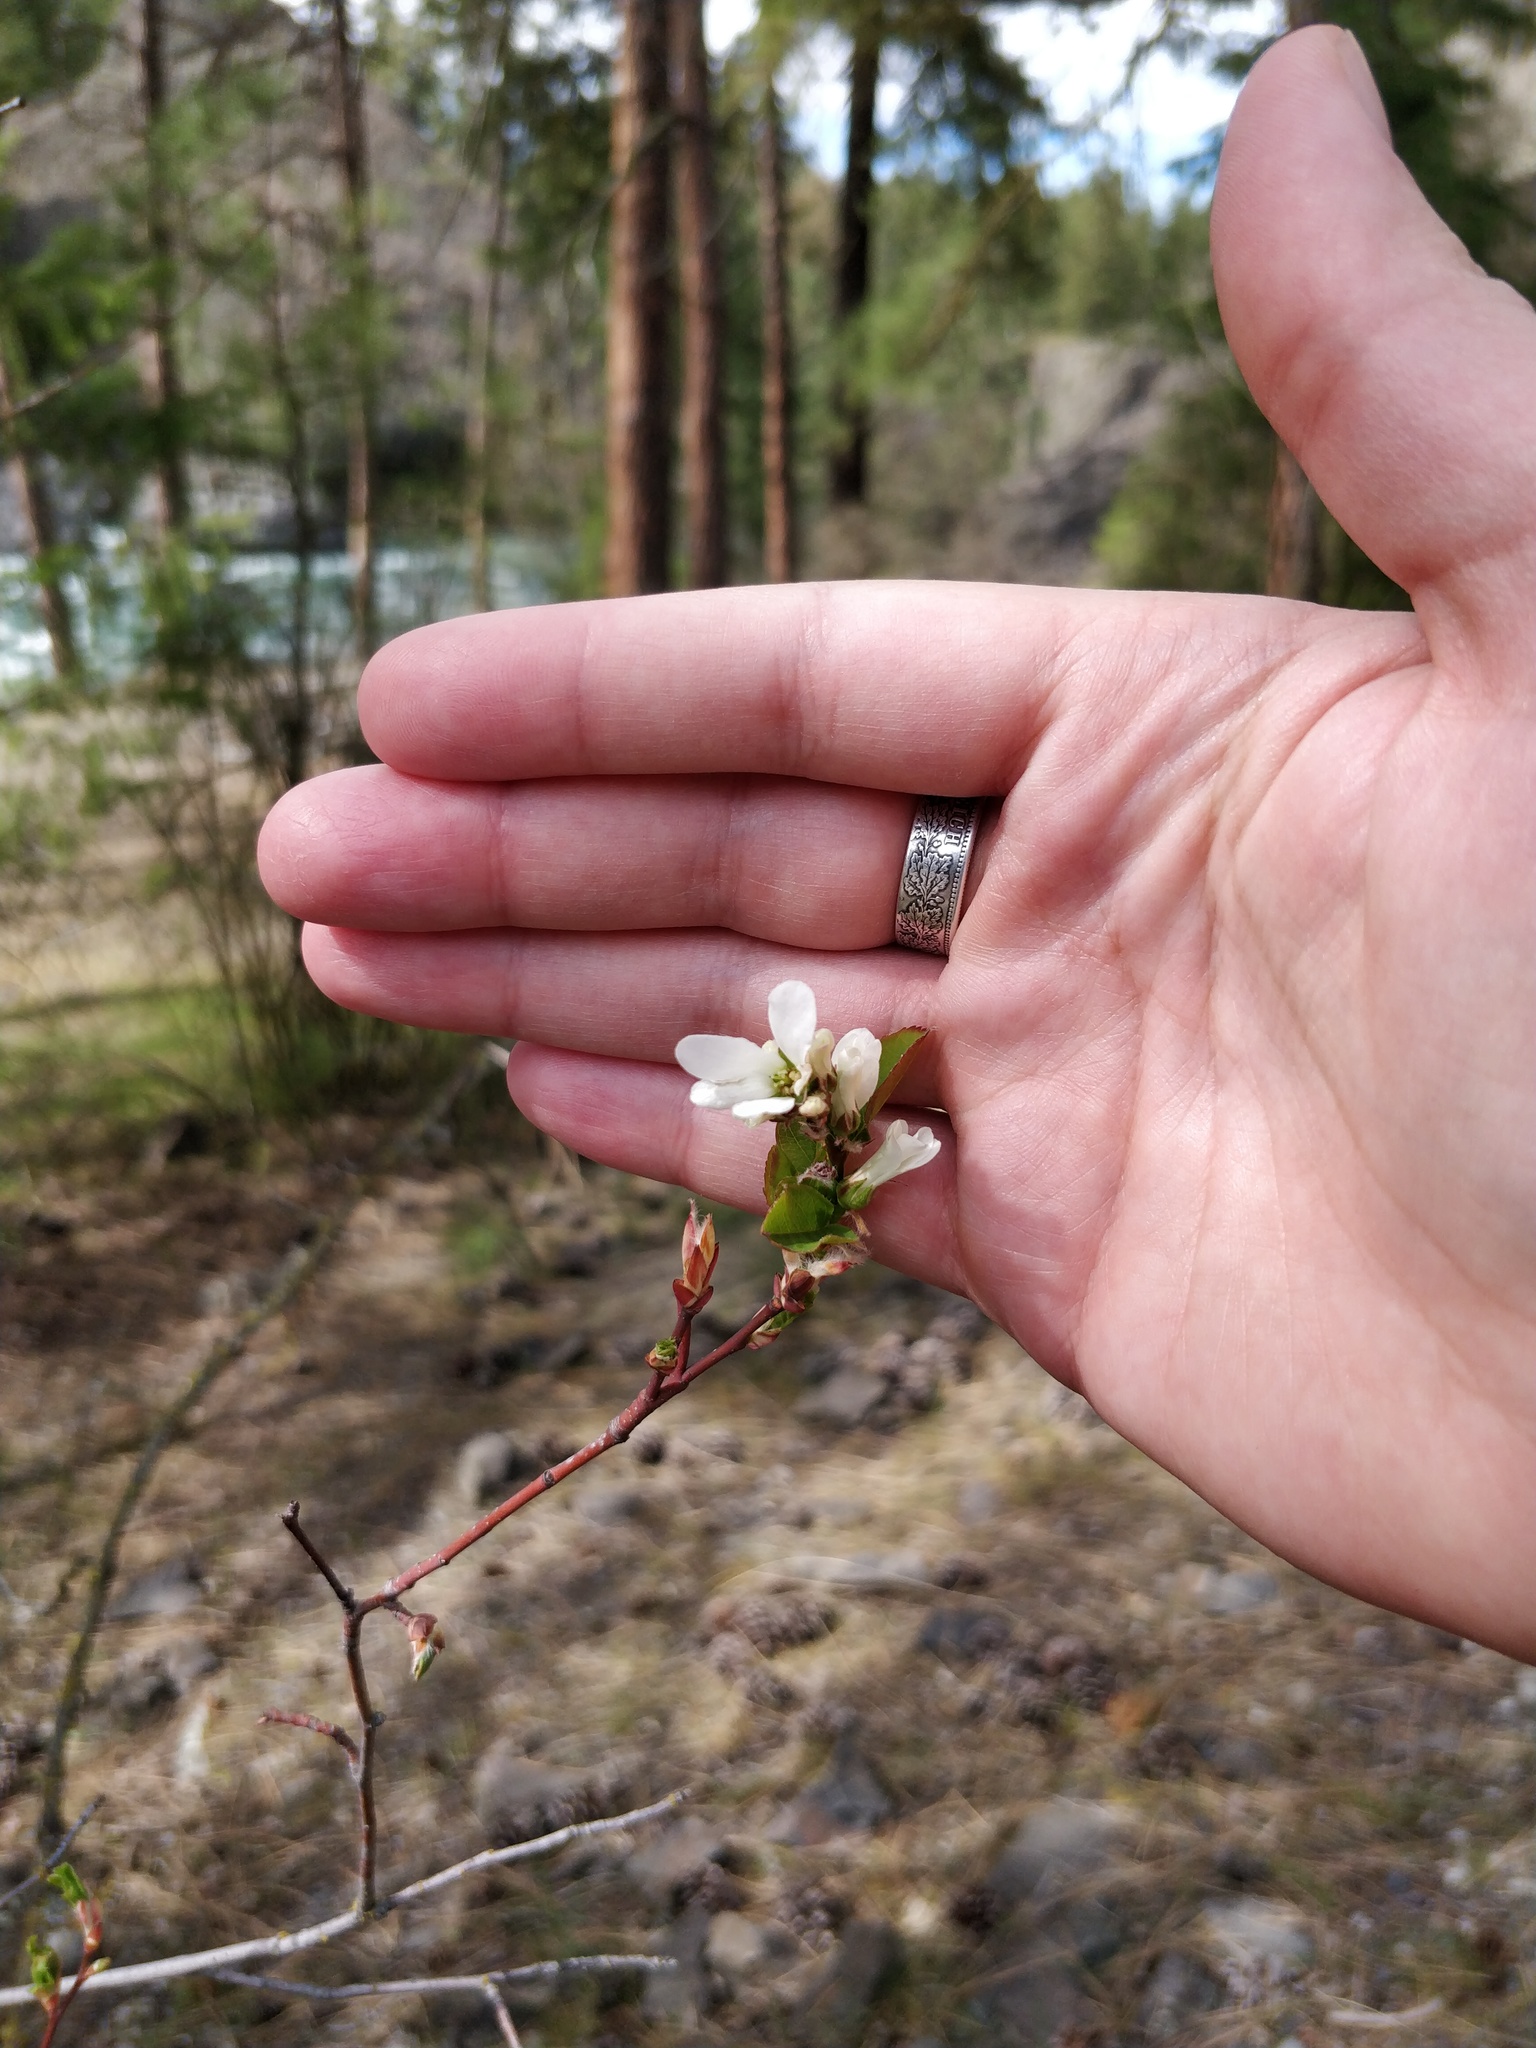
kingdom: Plantae
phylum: Tracheophyta
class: Magnoliopsida
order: Rosales
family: Rosaceae
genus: Amelanchier
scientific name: Amelanchier alnifolia
